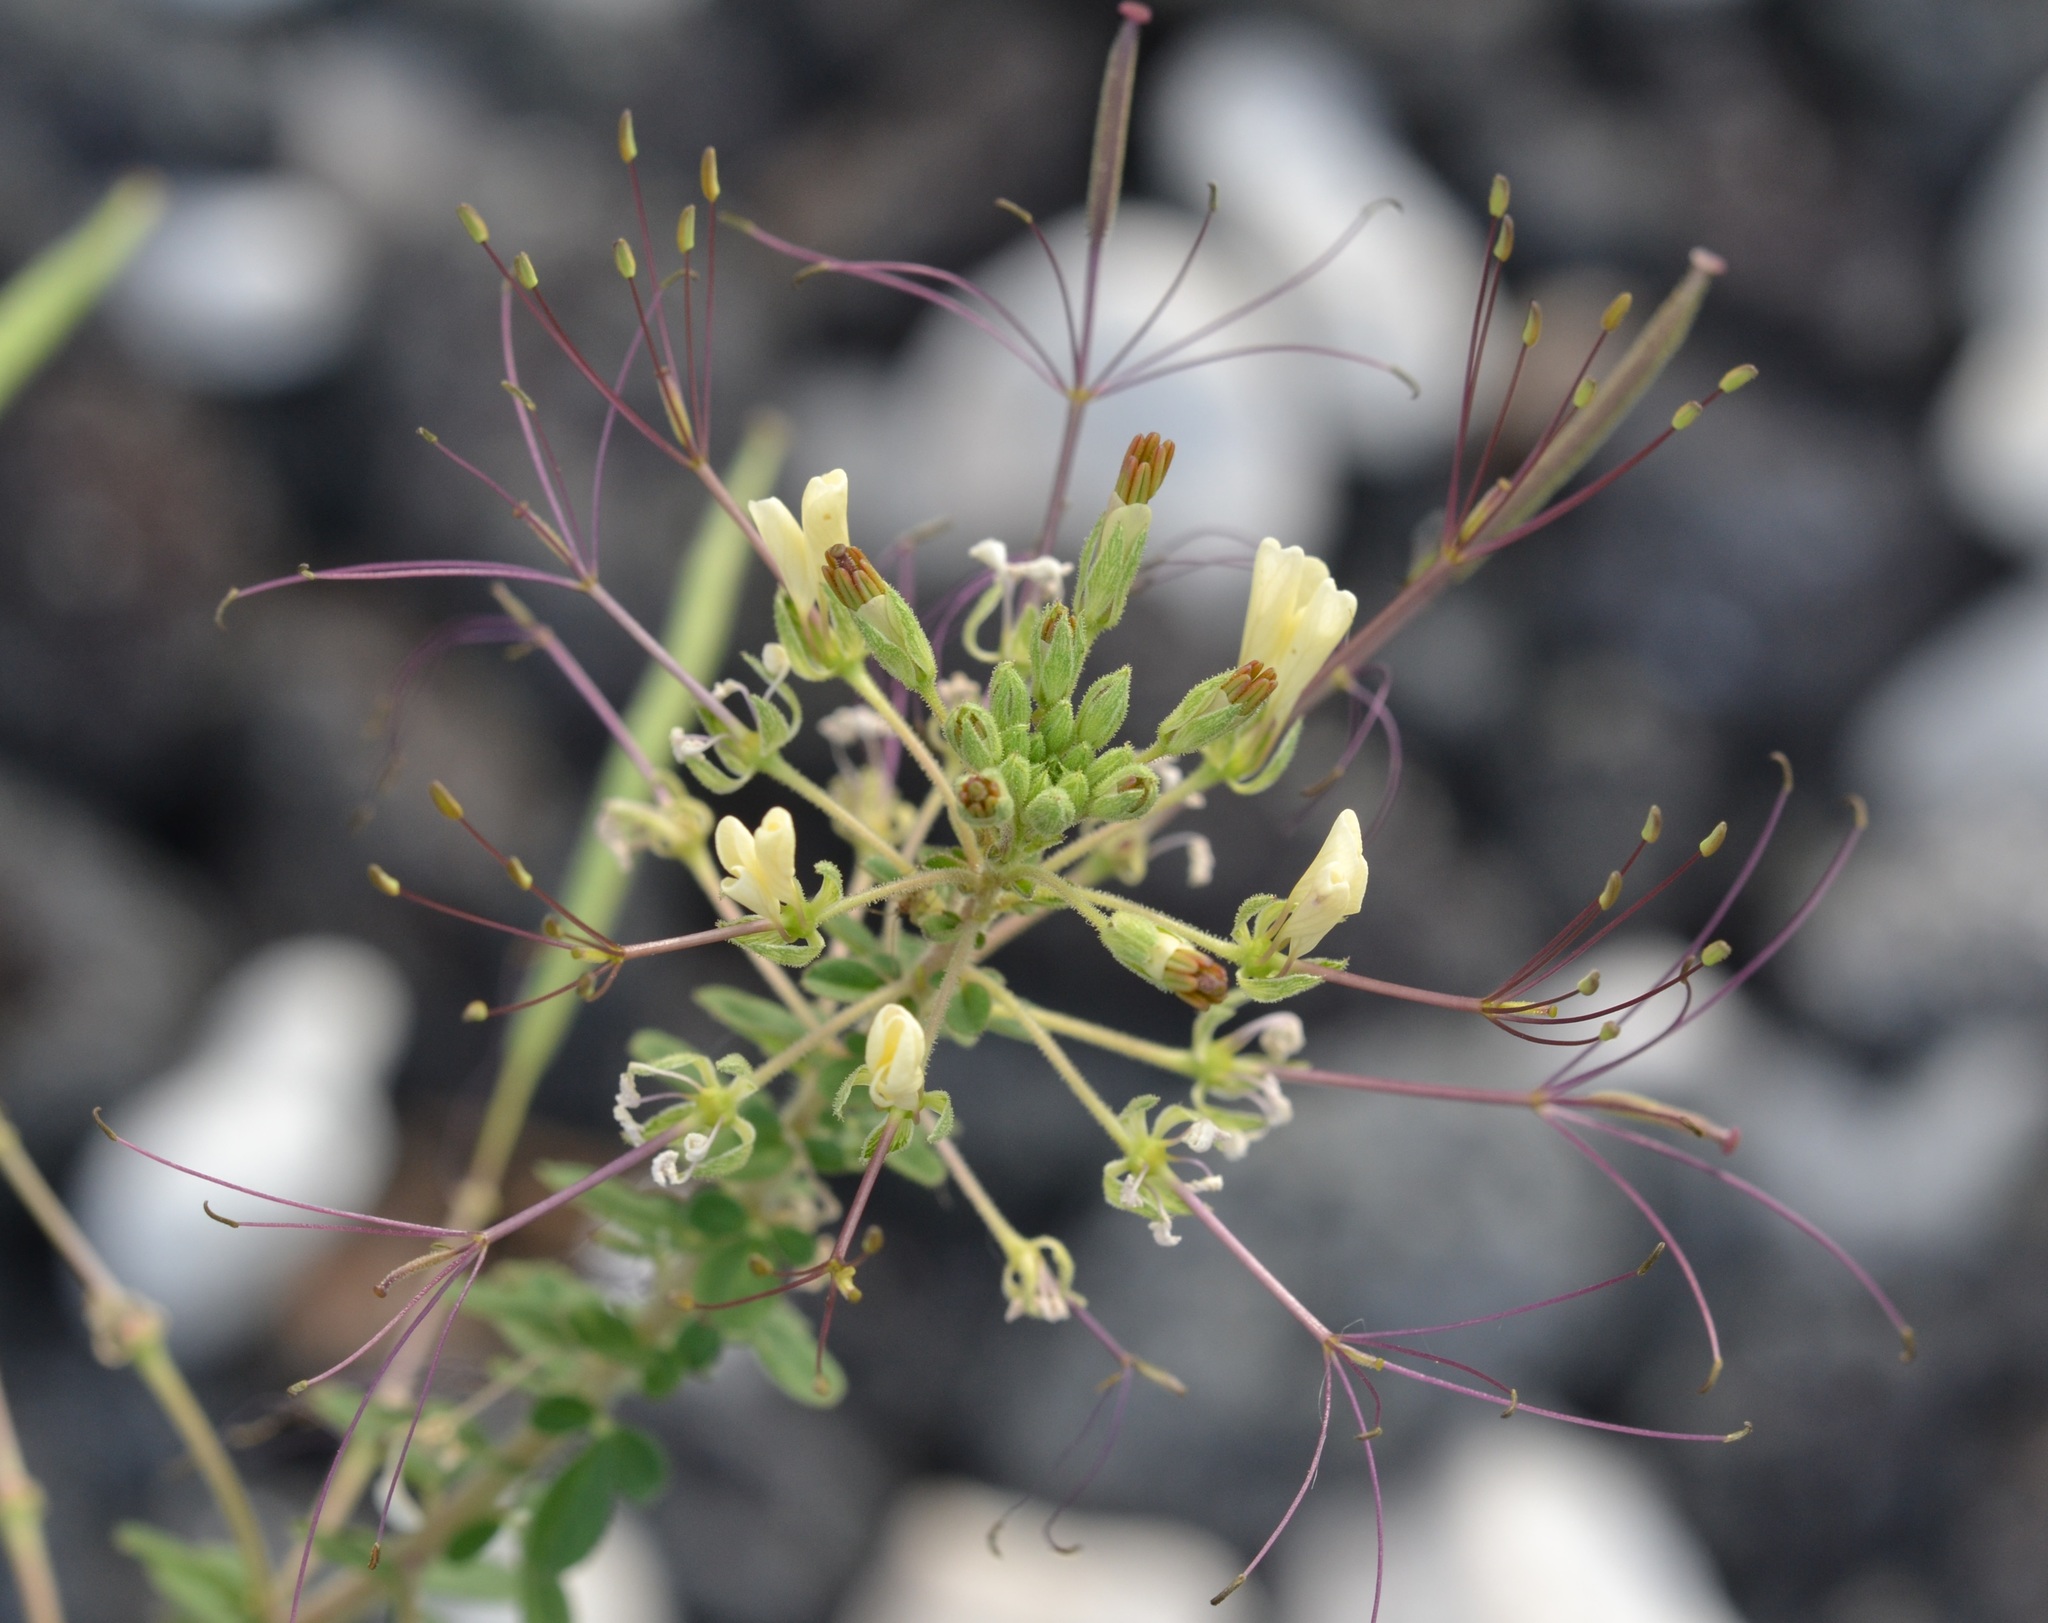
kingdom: Plantae
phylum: Tracheophyta
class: Magnoliopsida
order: Brassicales
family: Cleomaceae
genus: Gynandropsis
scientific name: Gynandropsis gynandra
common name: Spiderwisp
